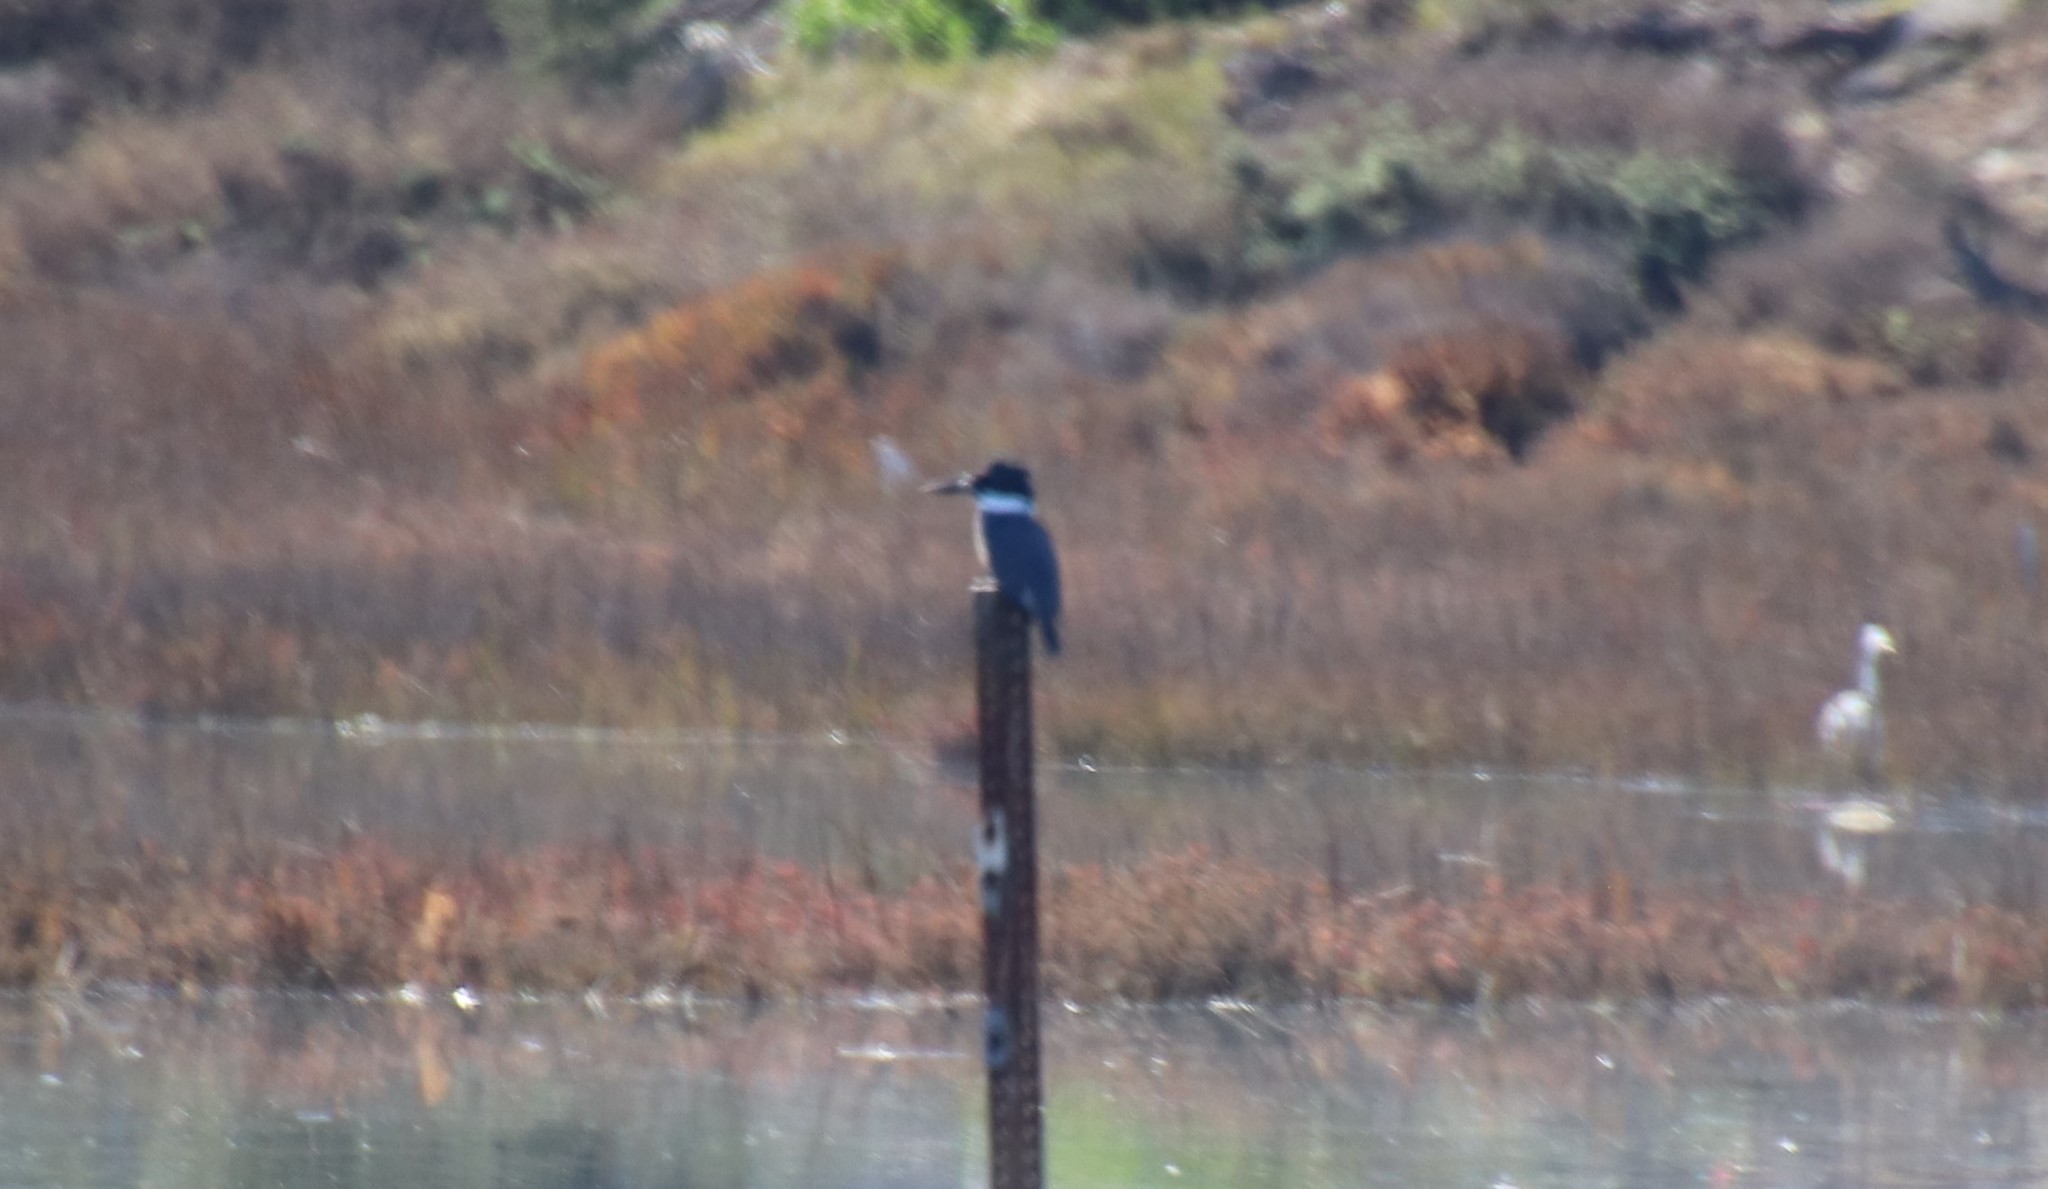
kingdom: Animalia
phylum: Chordata
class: Aves
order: Coraciiformes
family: Alcedinidae
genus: Megaceryle
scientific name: Megaceryle alcyon
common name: Belted kingfisher
